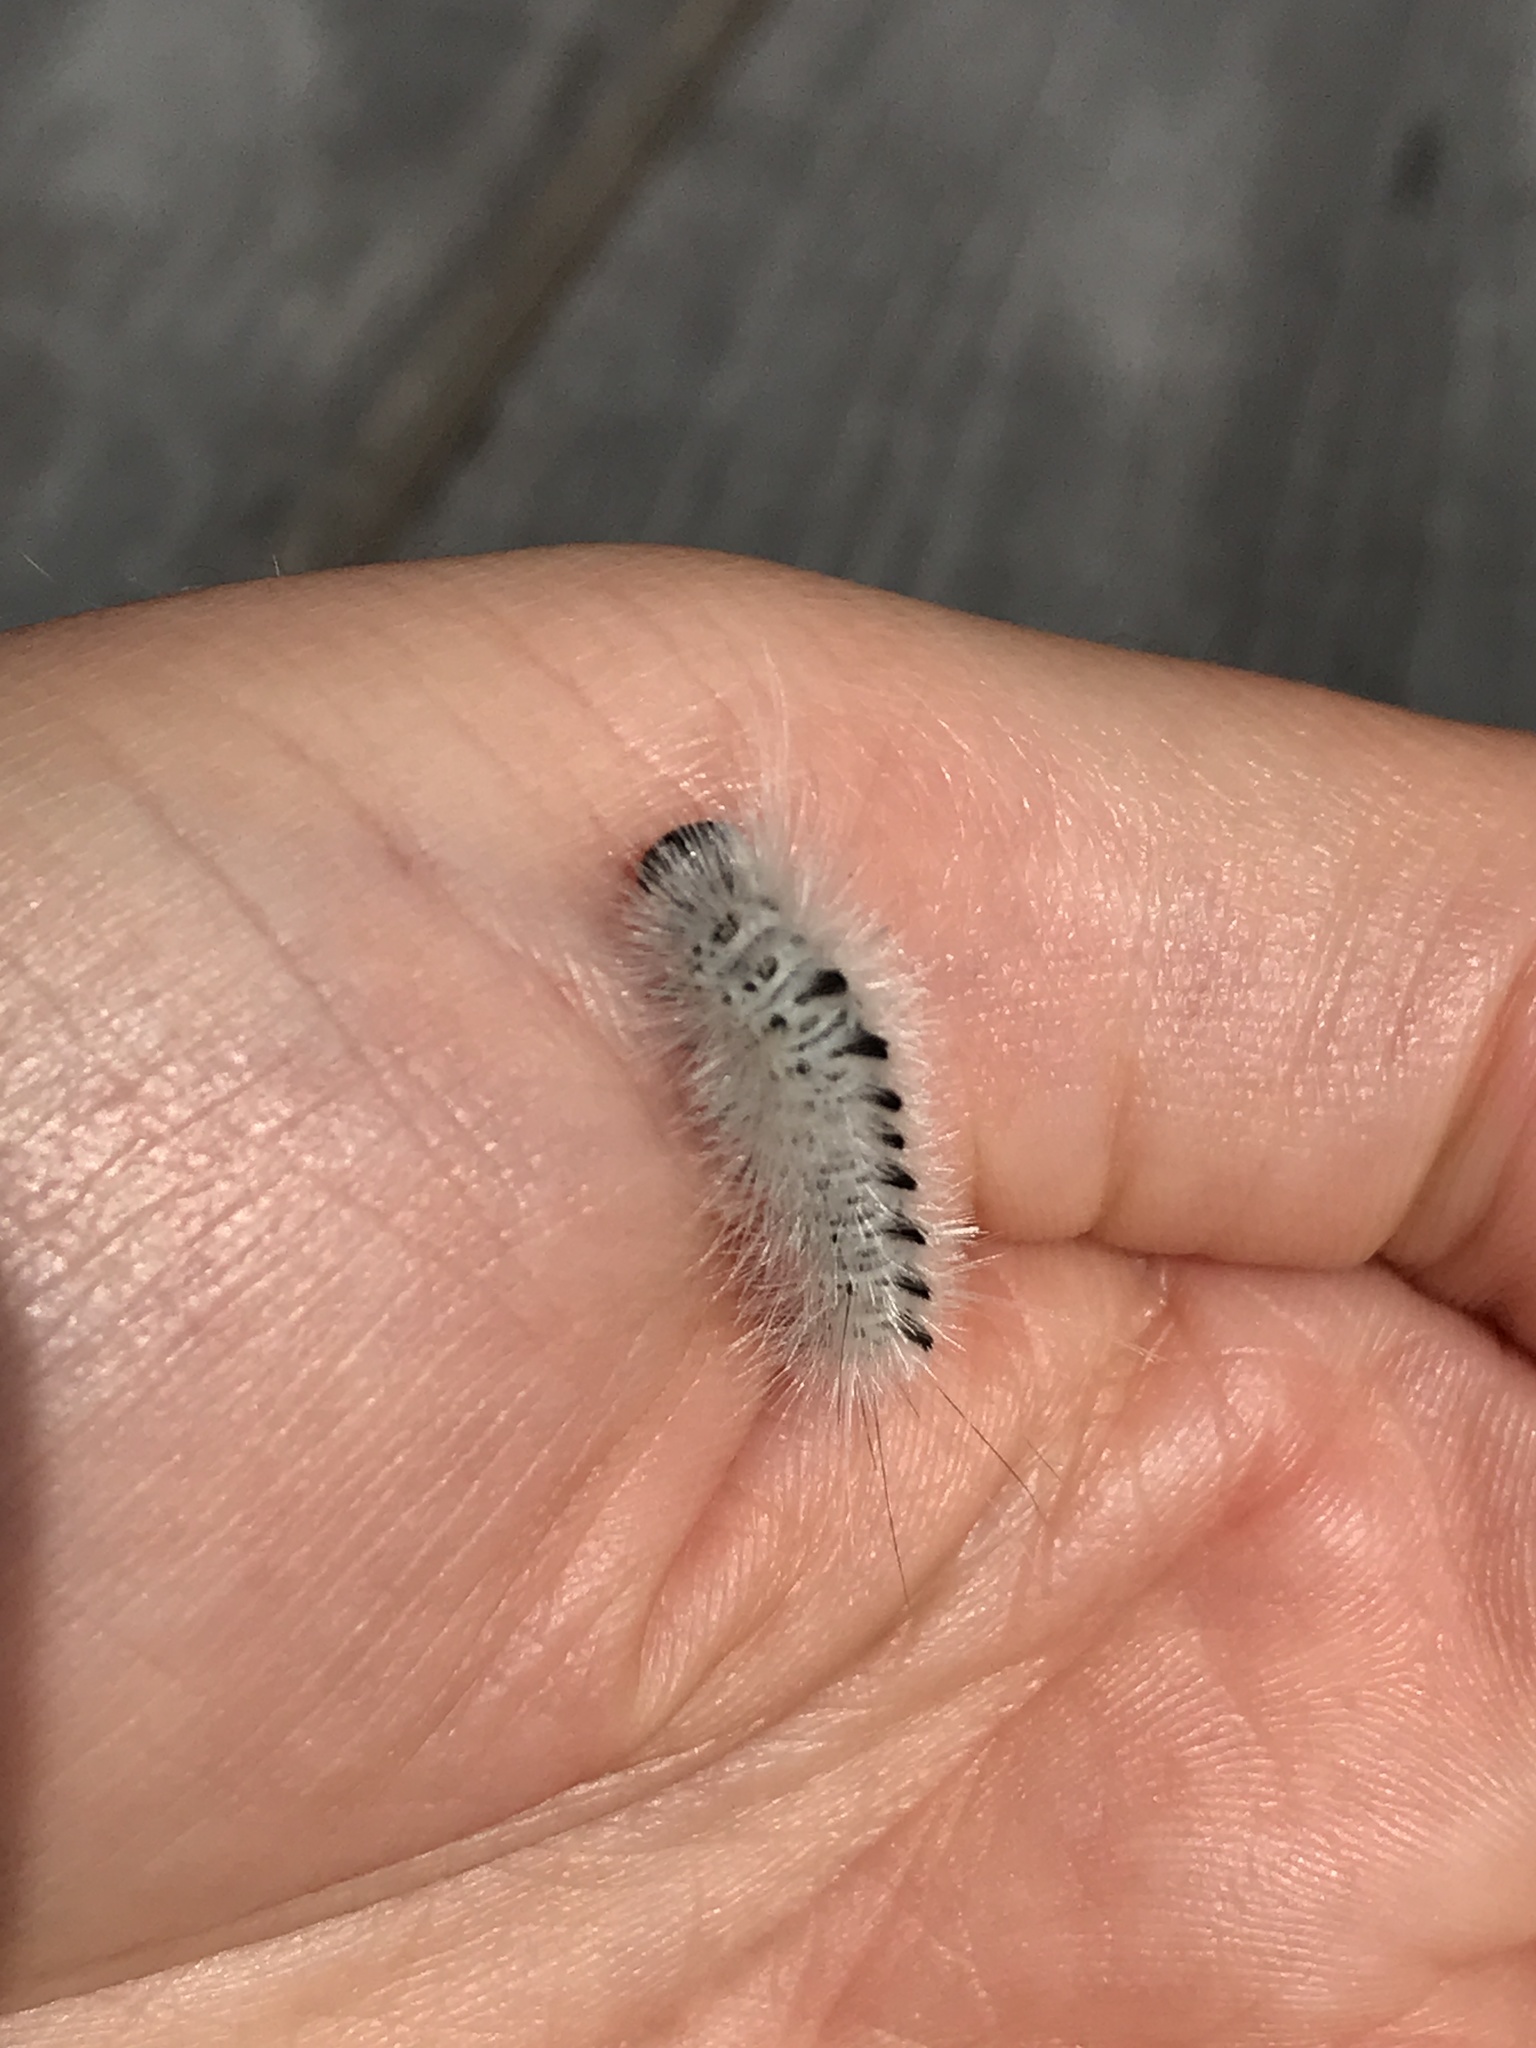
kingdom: Animalia
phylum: Arthropoda
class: Insecta
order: Lepidoptera
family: Erebidae
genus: Lophocampa
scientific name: Lophocampa caryae
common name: Hickory tussock moth
